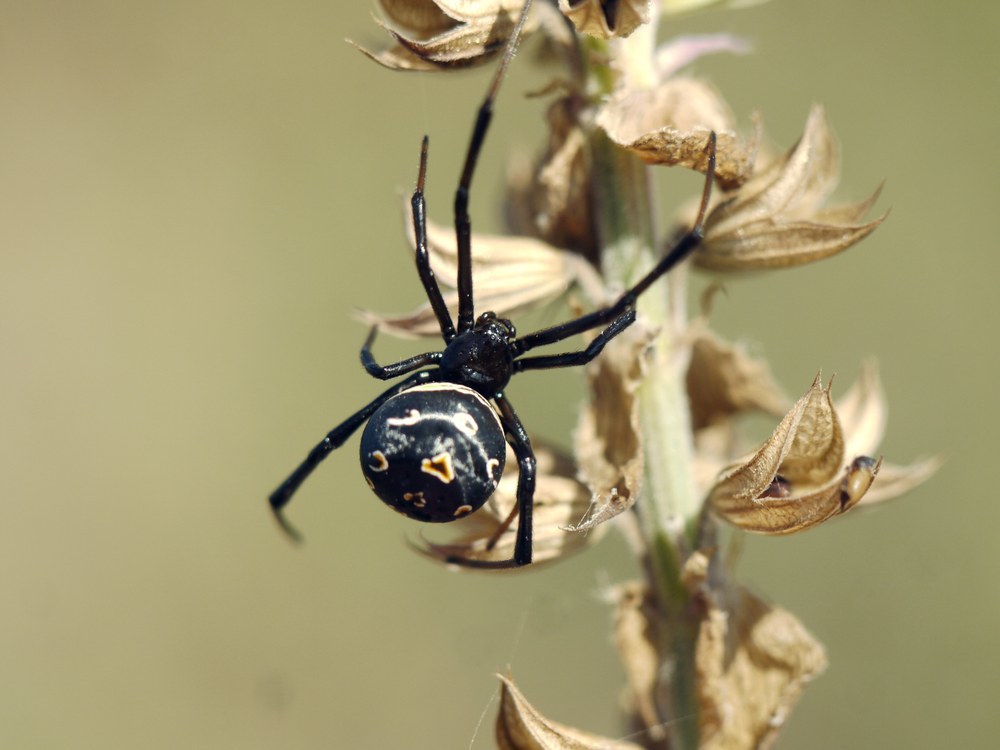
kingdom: Animalia
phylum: Arthropoda
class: Arachnida
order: Araneae
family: Theridiidae
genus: Latrodectus
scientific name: Latrodectus tredecimguttatus
